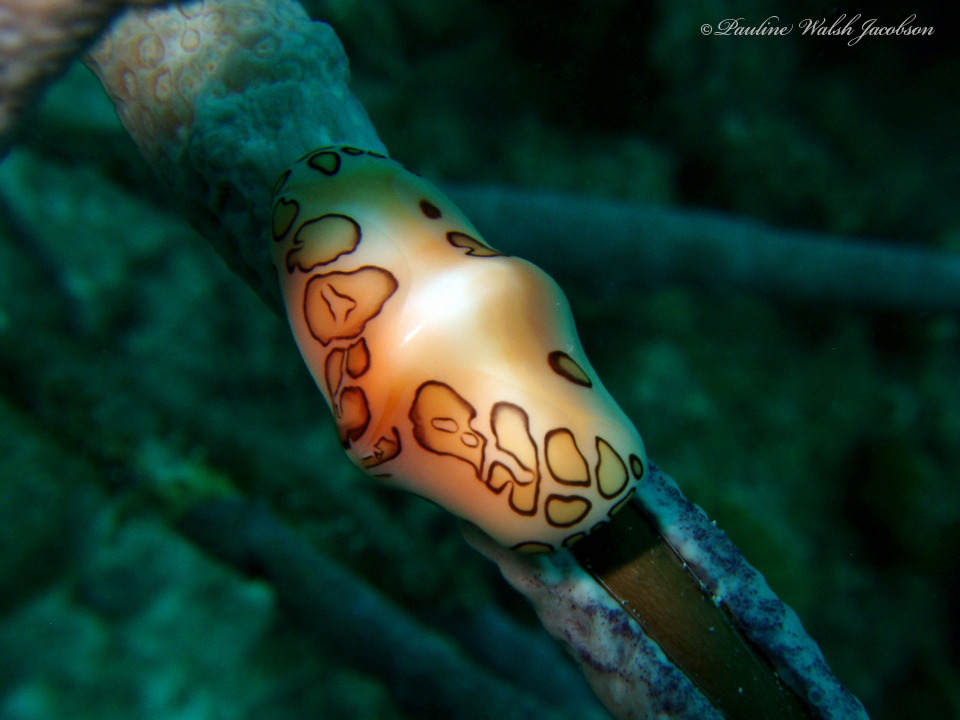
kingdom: Animalia
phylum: Mollusca
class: Gastropoda
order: Littorinimorpha
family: Ovulidae
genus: Cyphoma
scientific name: Cyphoma gibbosum
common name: Flamingo tongue
